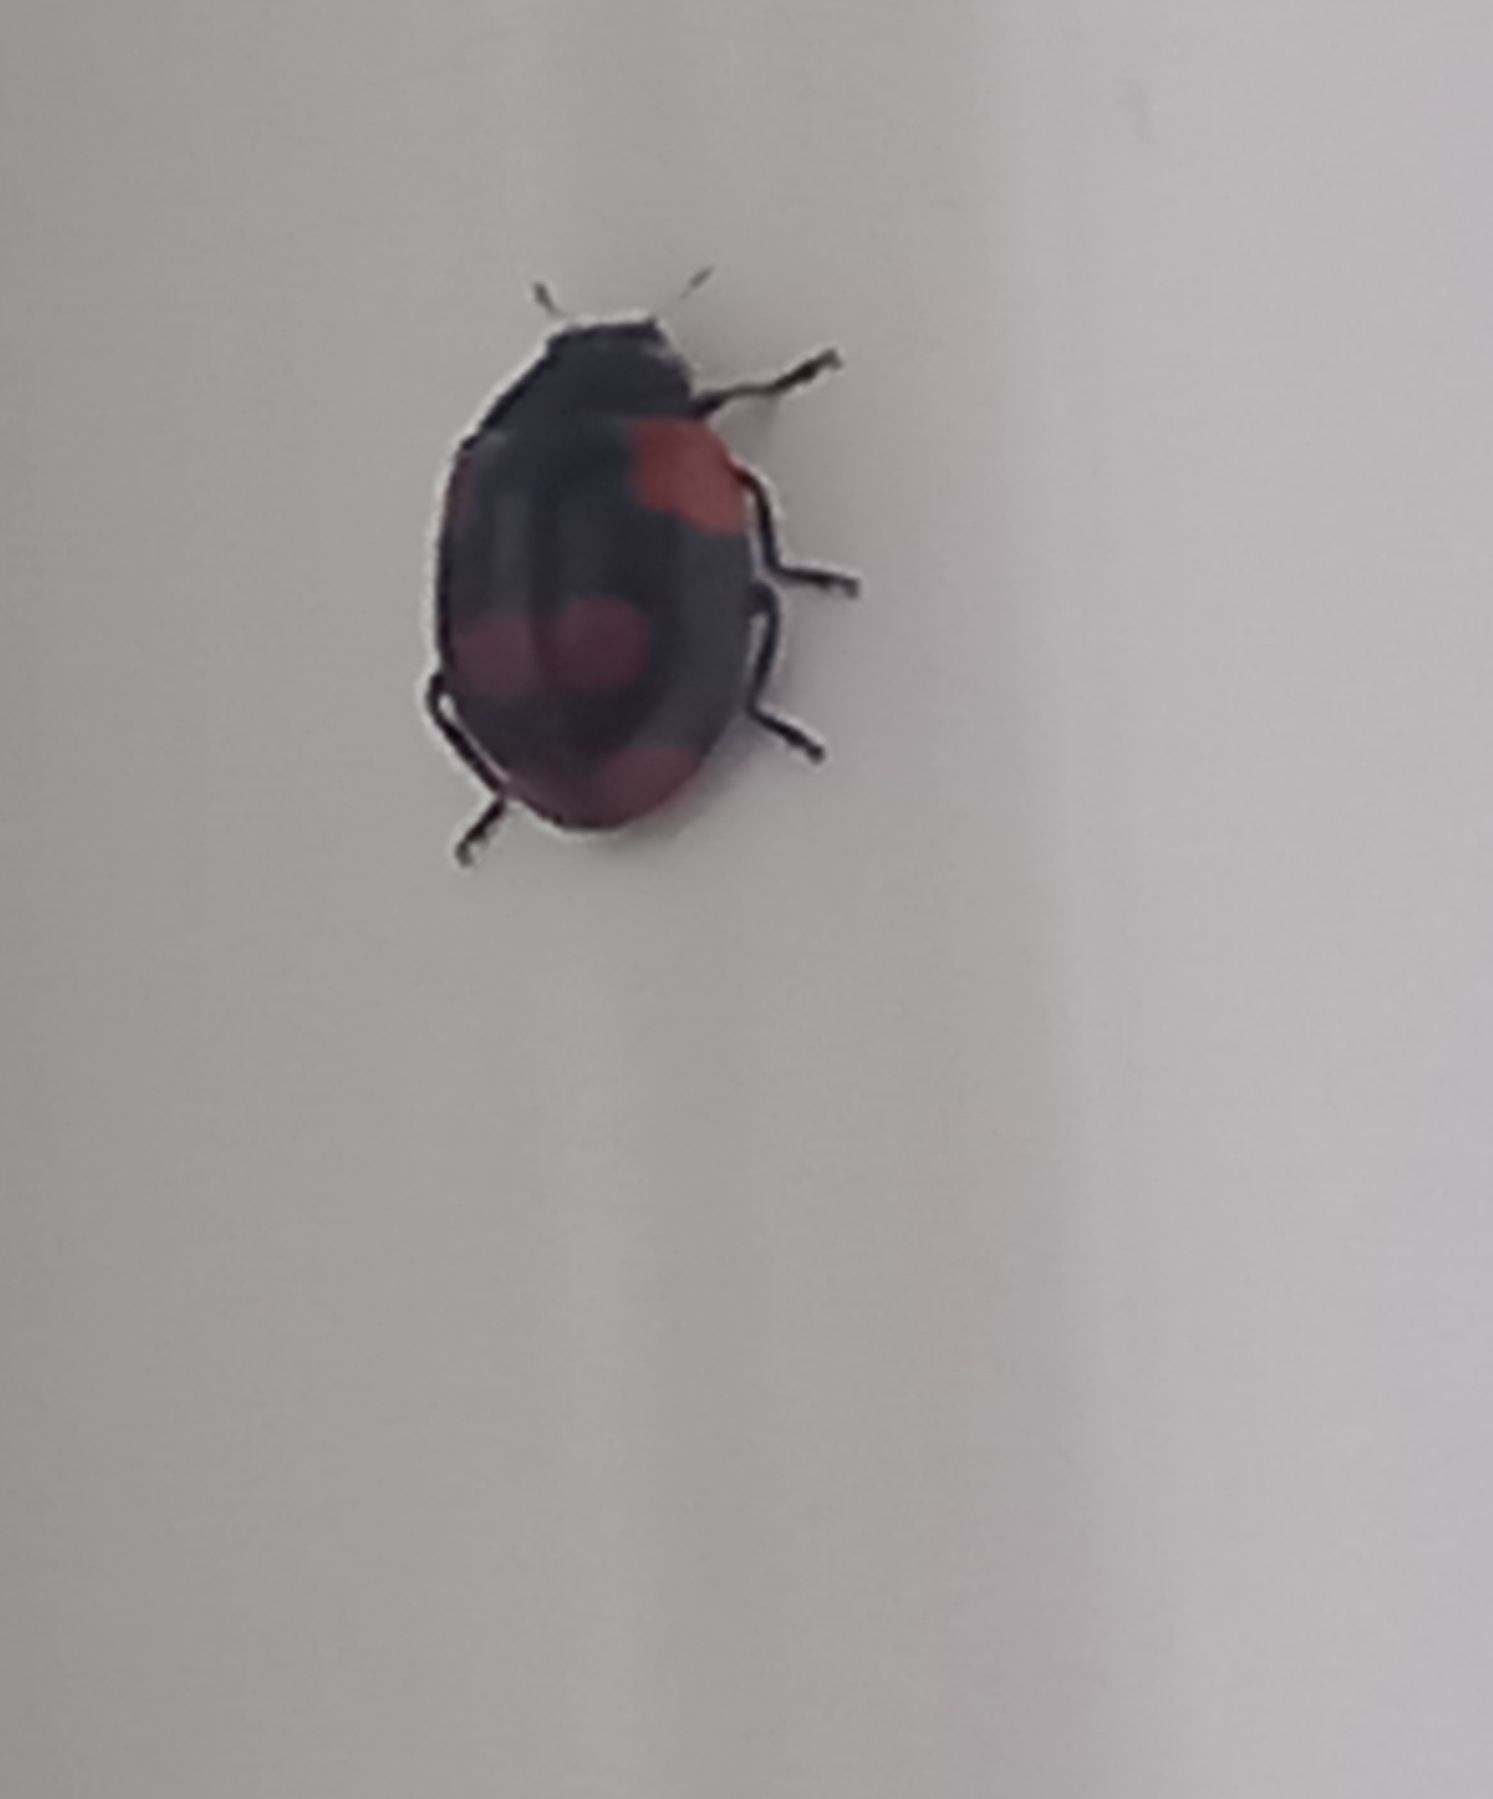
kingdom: Animalia
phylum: Arthropoda
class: Insecta
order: Coleoptera
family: Coccinellidae
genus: Adalia
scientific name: Adalia bipunctata
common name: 2-spot ladybird
